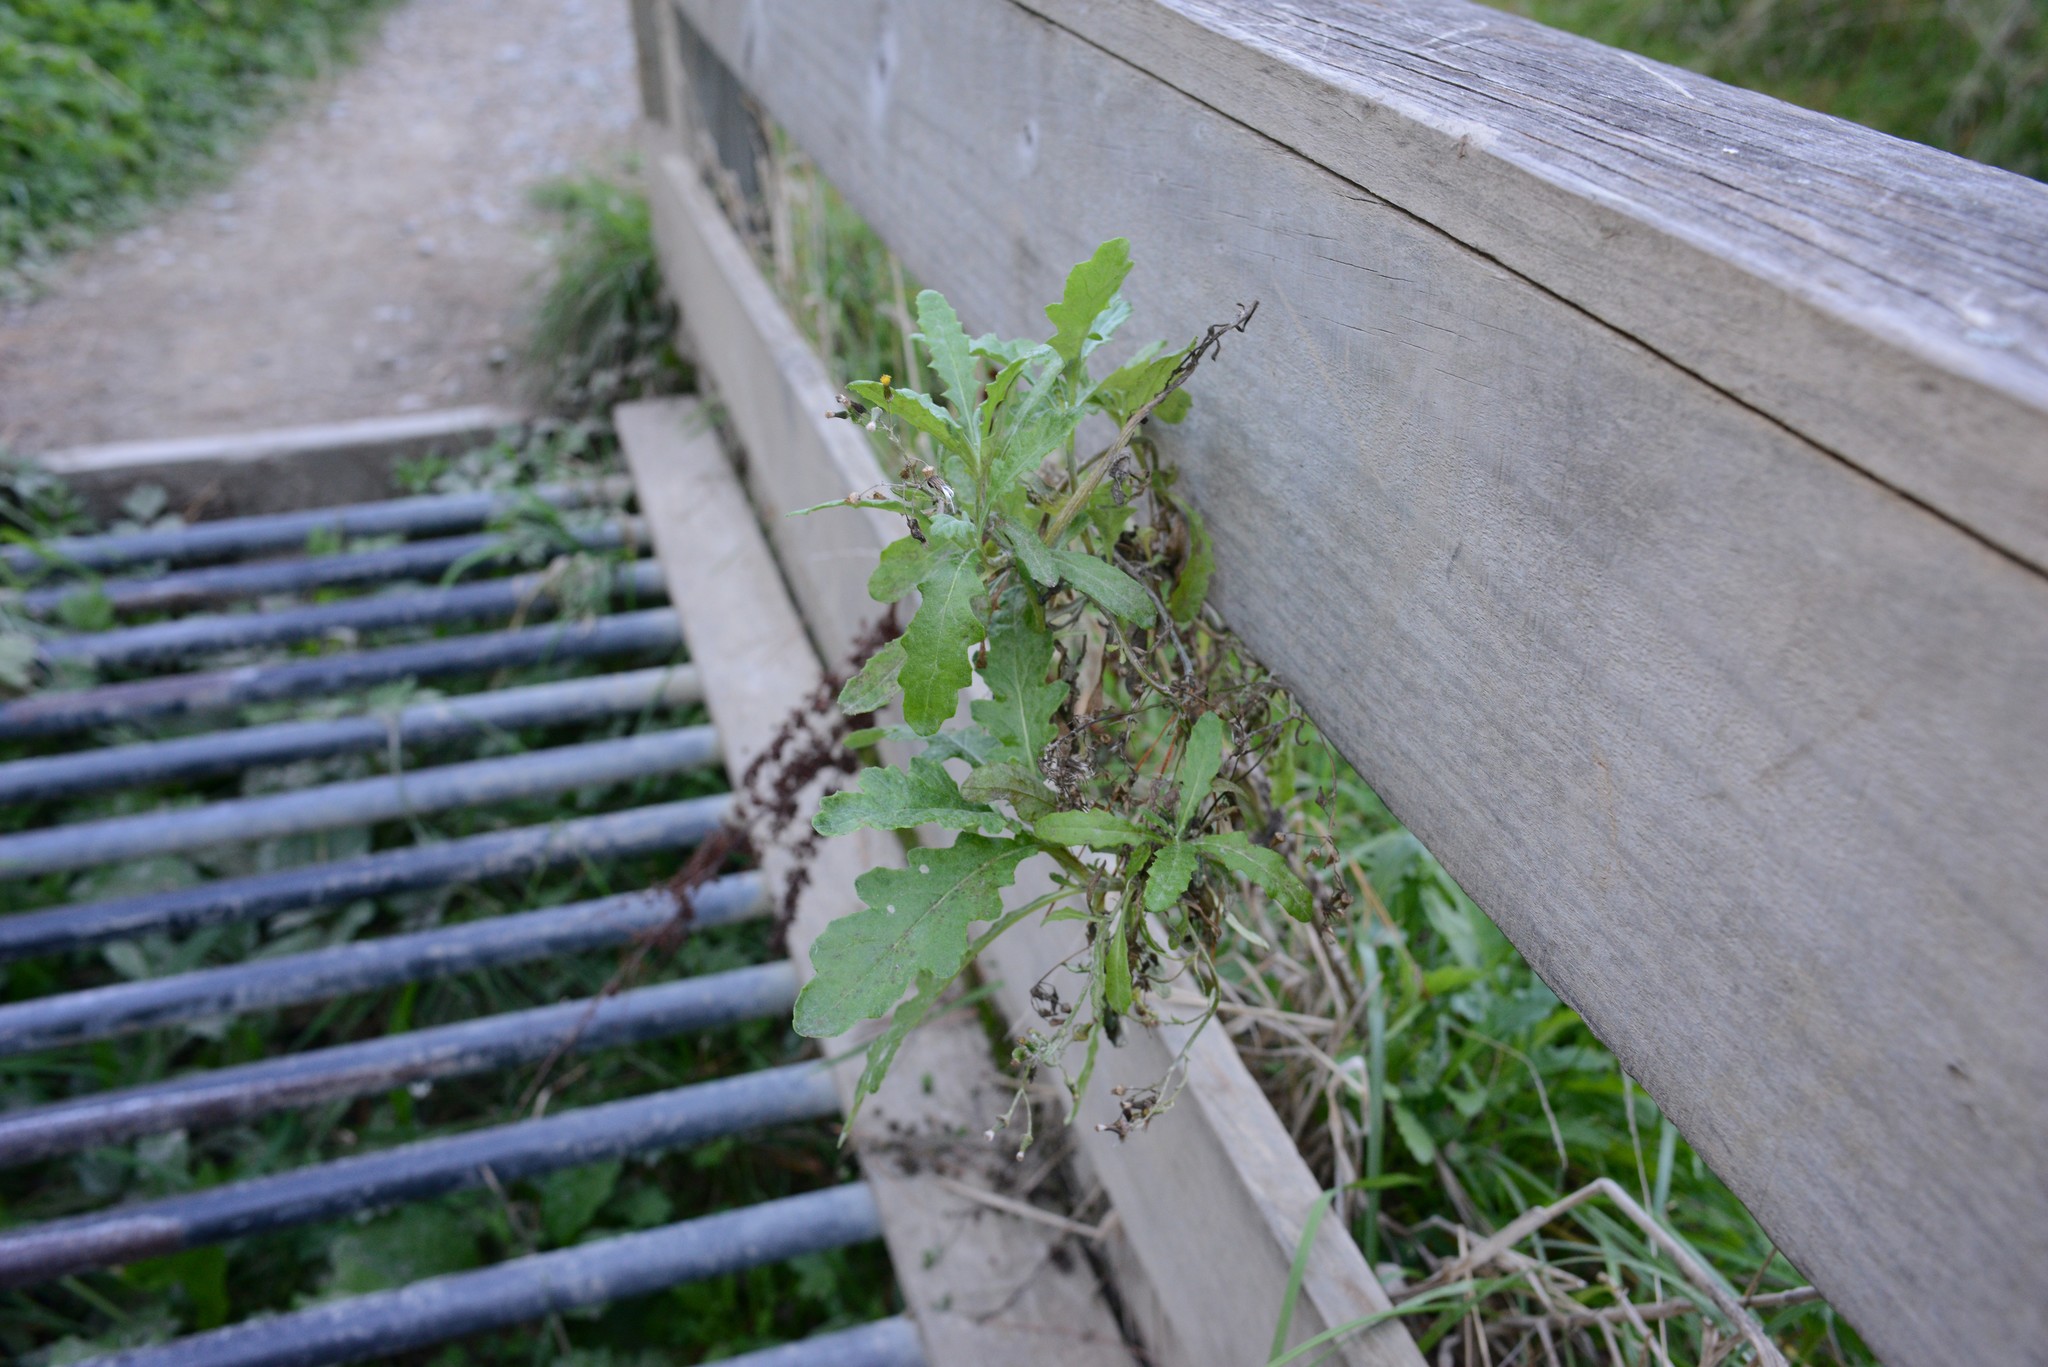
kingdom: Plantae
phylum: Tracheophyta
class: Magnoliopsida
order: Asterales
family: Asteraceae
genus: Senecio
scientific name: Senecio glomeratus
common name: Cutleaf burnweed
